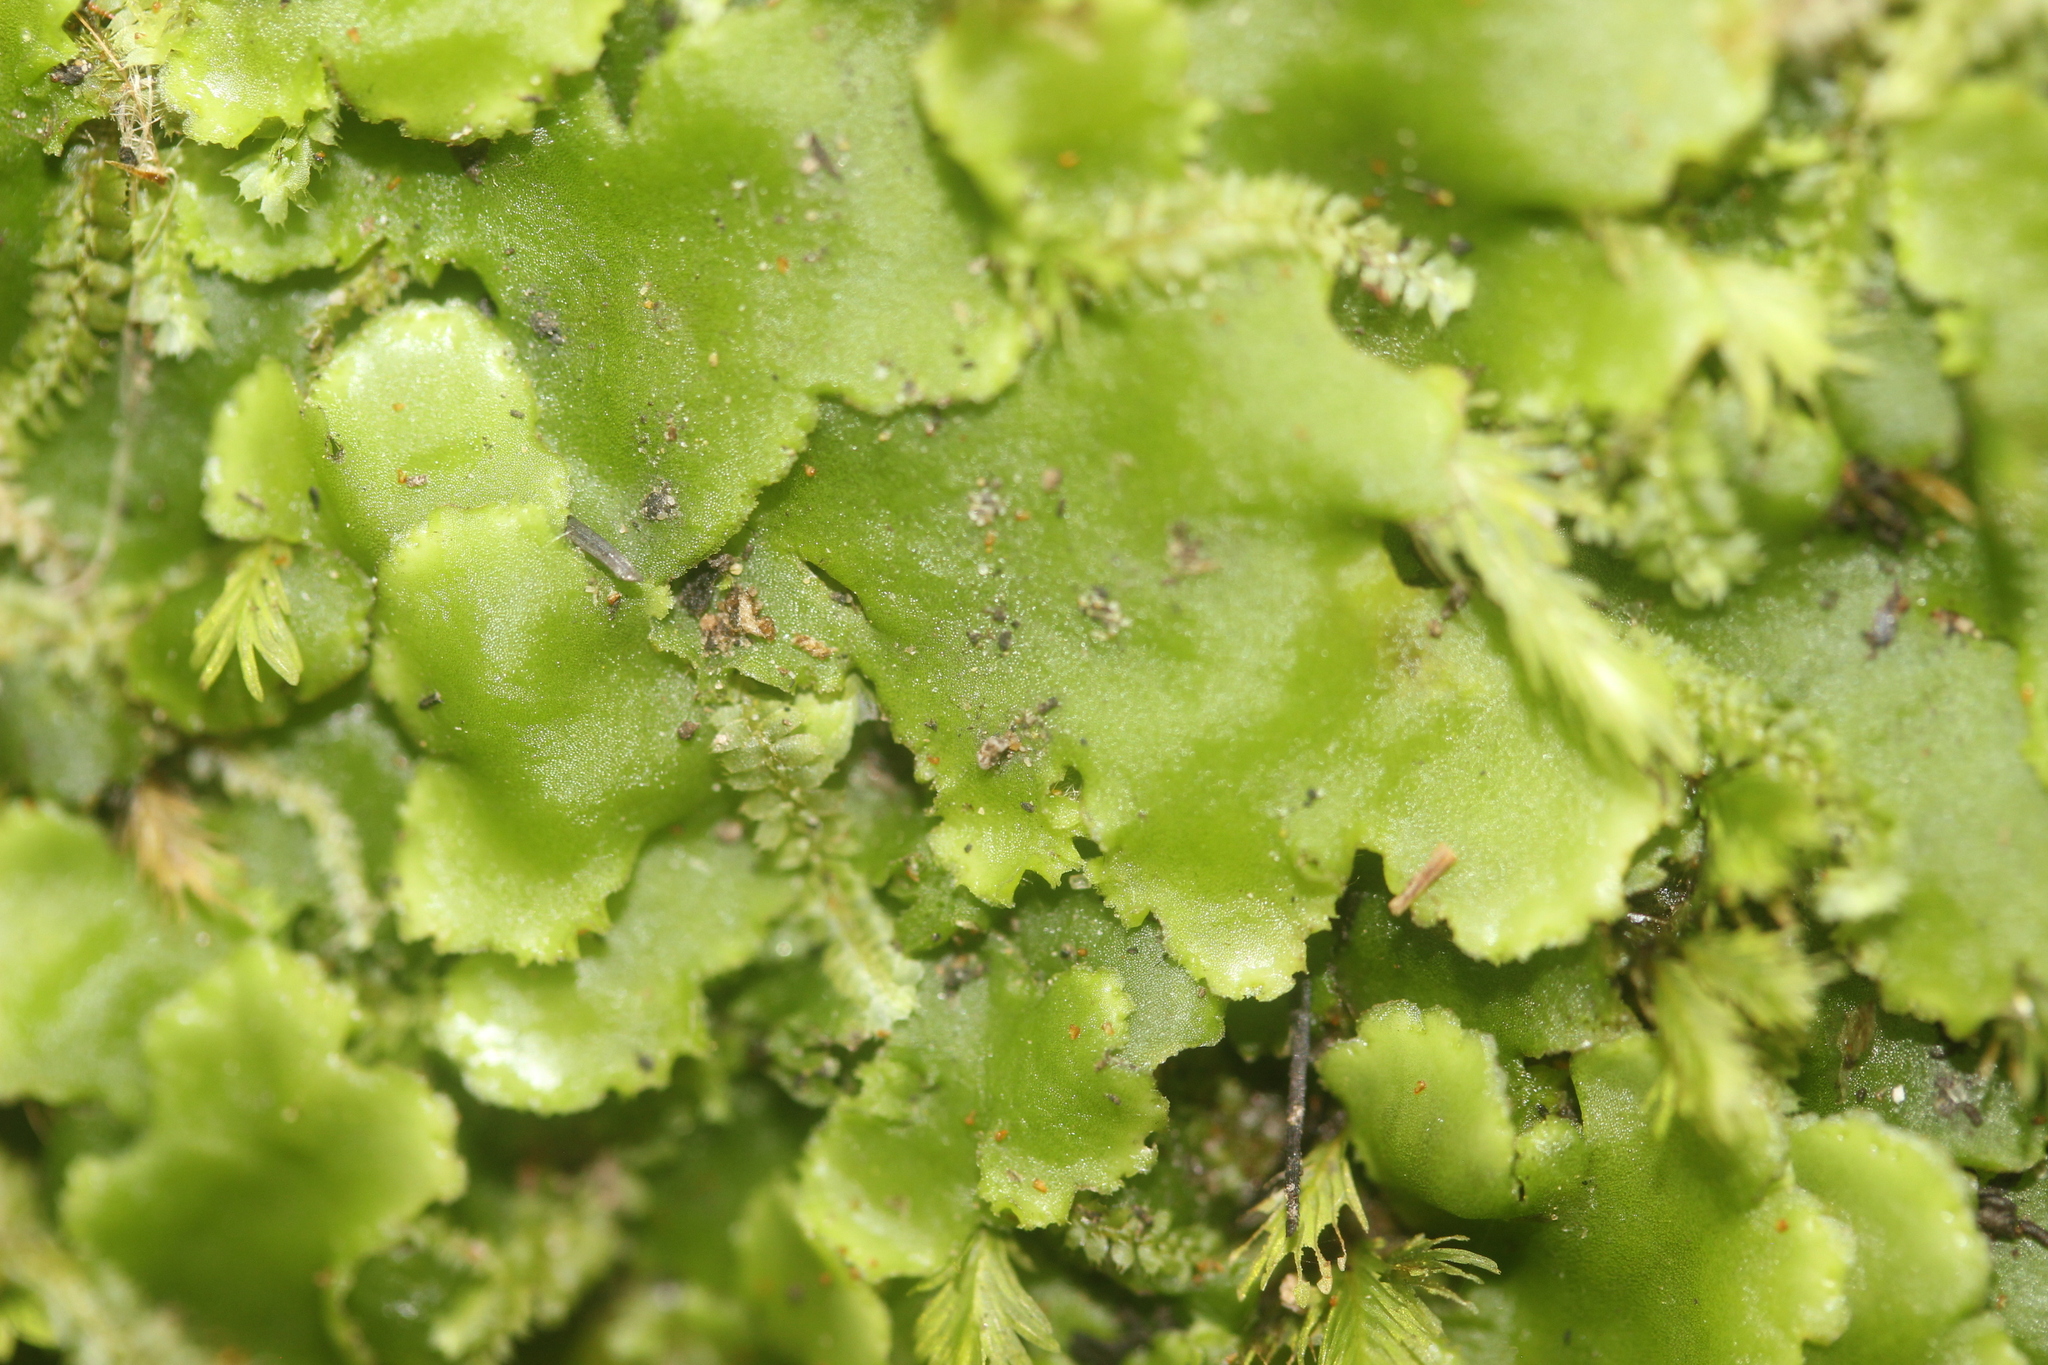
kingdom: Plantae
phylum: Marchantiophyta
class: Jungermanniopsida
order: Metzgeriales
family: Aneuraceae
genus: Lobatiriccardia
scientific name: Lobatiriccardia alterniloba
